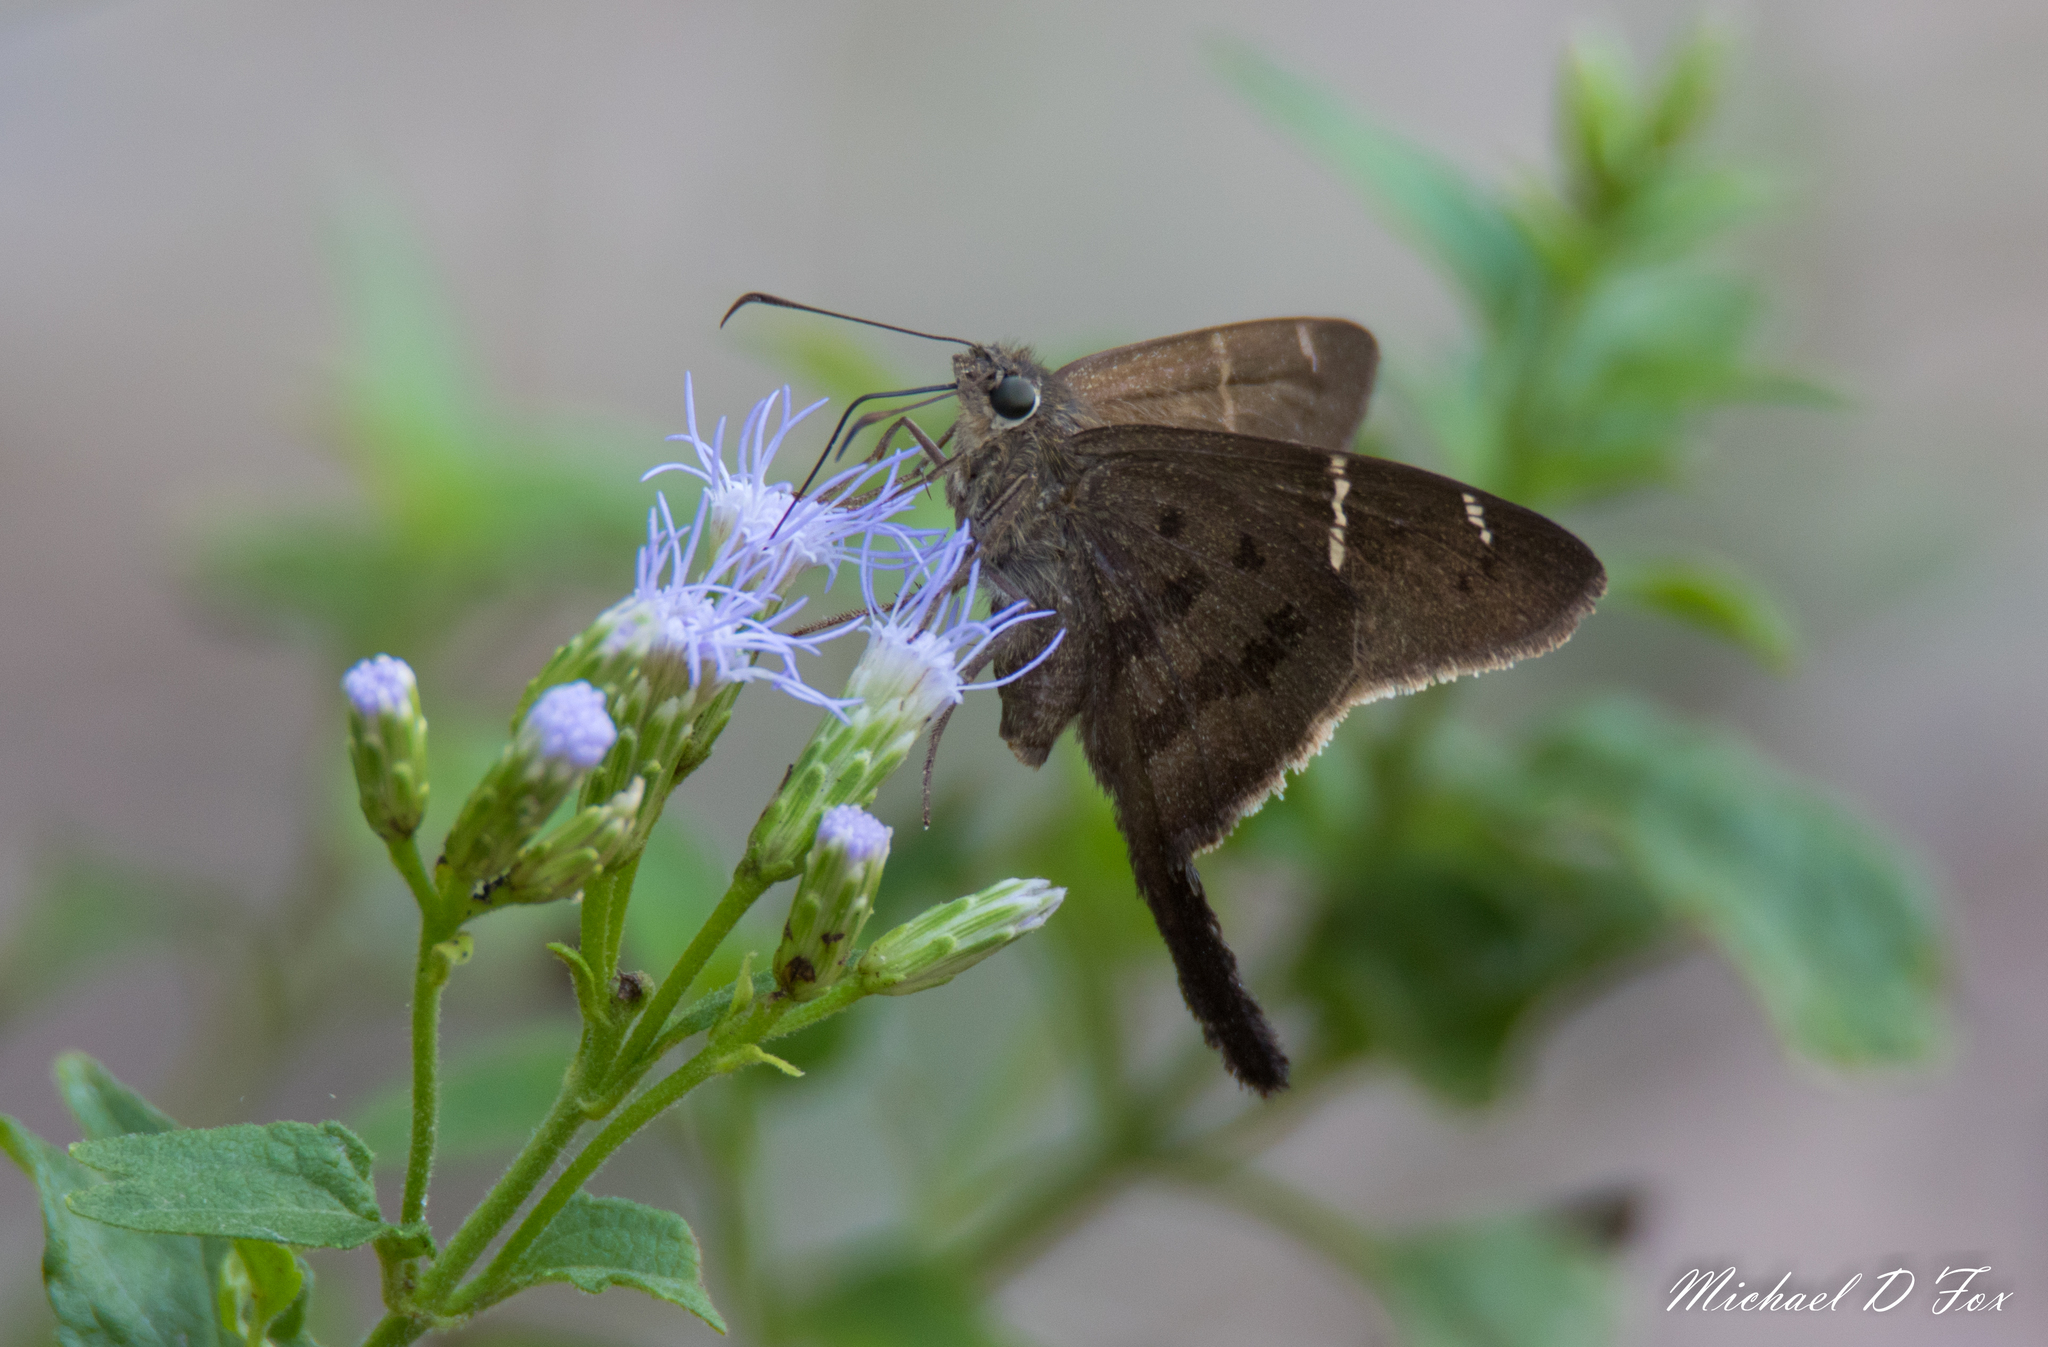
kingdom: Animalia
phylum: Arthropoda
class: Insecta
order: Lepidoptera
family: Hesperiidae
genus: Urbanus
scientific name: Urbanus procne
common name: Brown longtail
